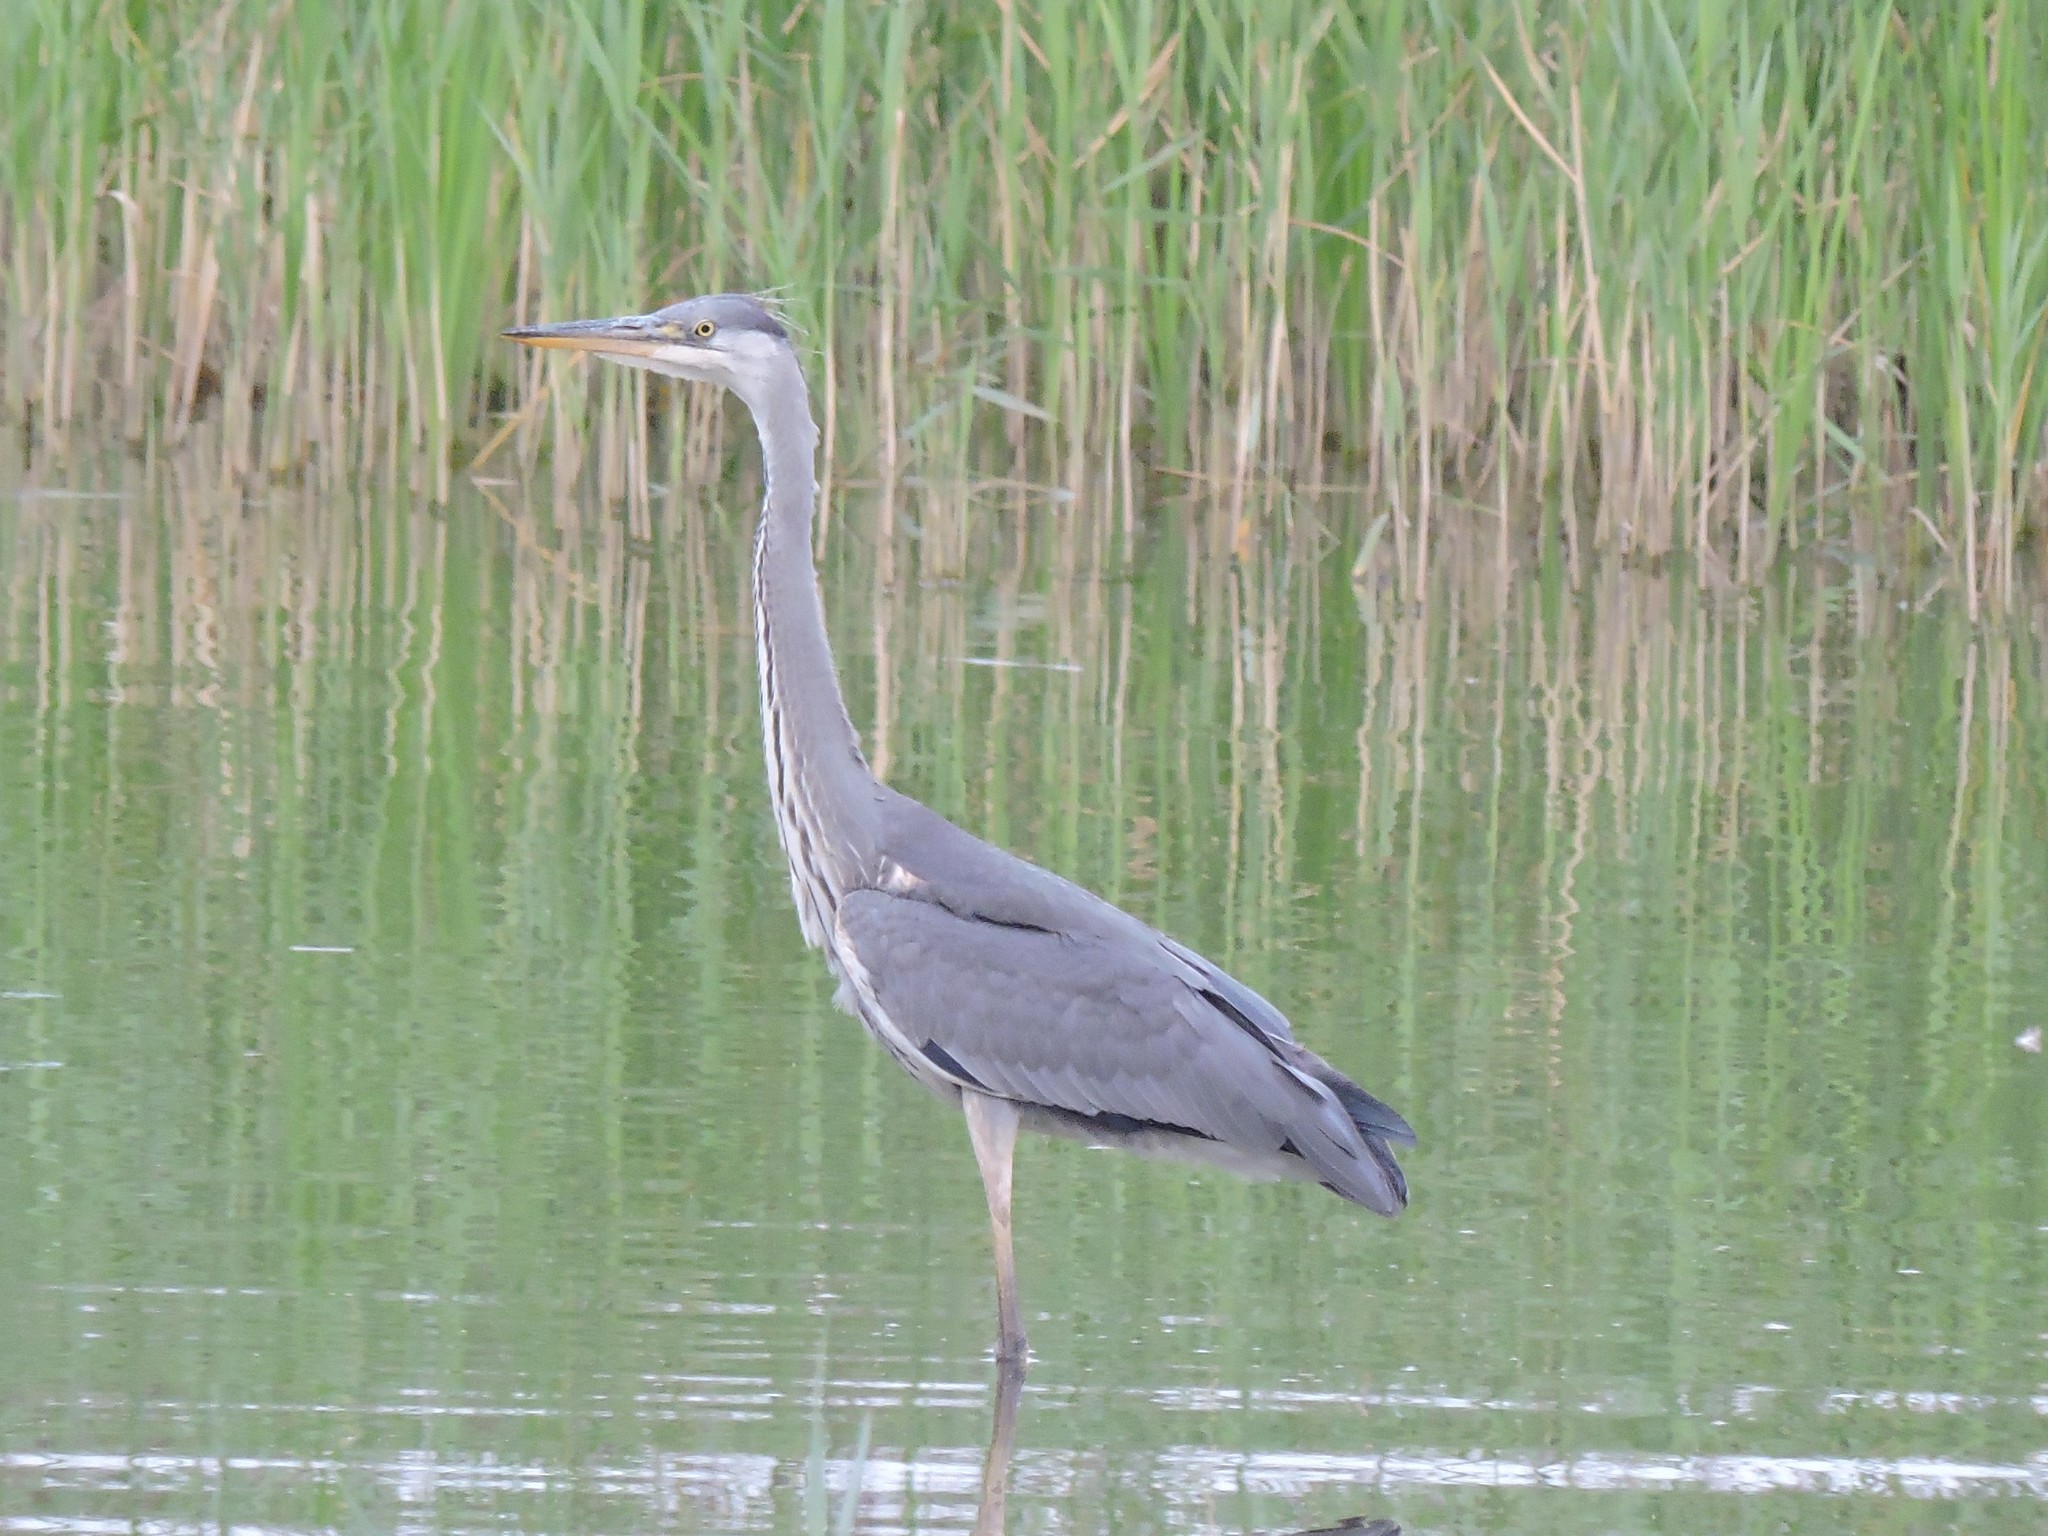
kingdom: Animalia
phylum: Chordata
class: Aves
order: Pelecaniformes
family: Ardeidae
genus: Ardea
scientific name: Ardea cinerea
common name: Grey heron
